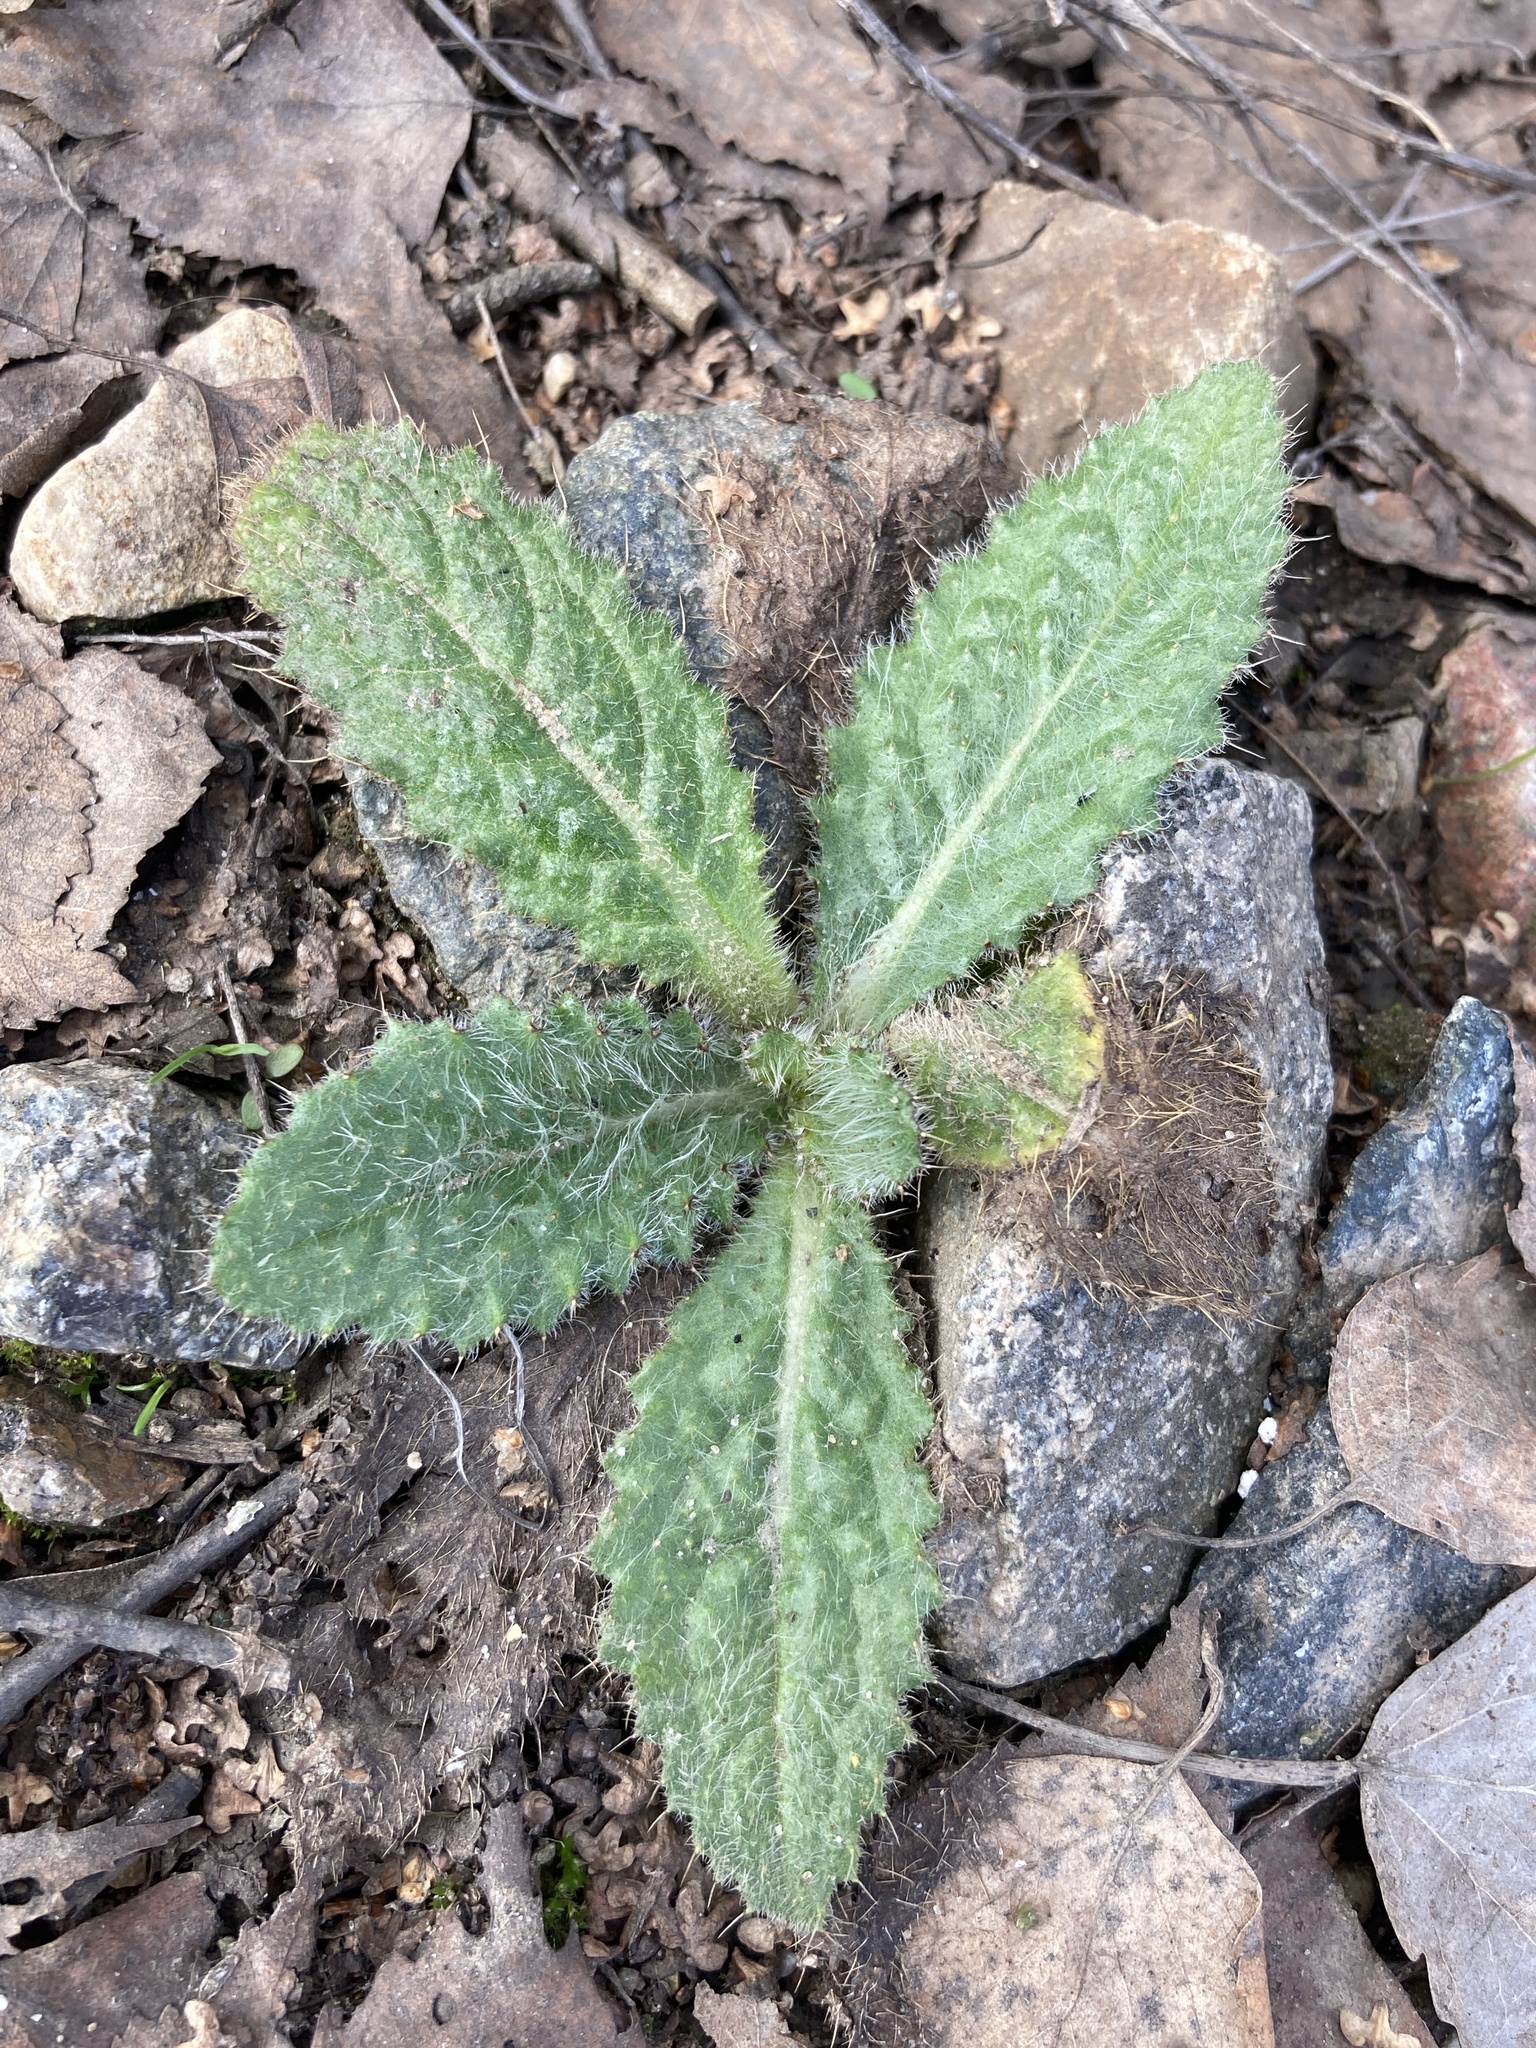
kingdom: Plantae
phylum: Tracheophyta
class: Magnoliopsida
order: Asterales
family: Asteraceae
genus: Cirsium
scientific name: Cirsium vulgare
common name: Bull thistle
